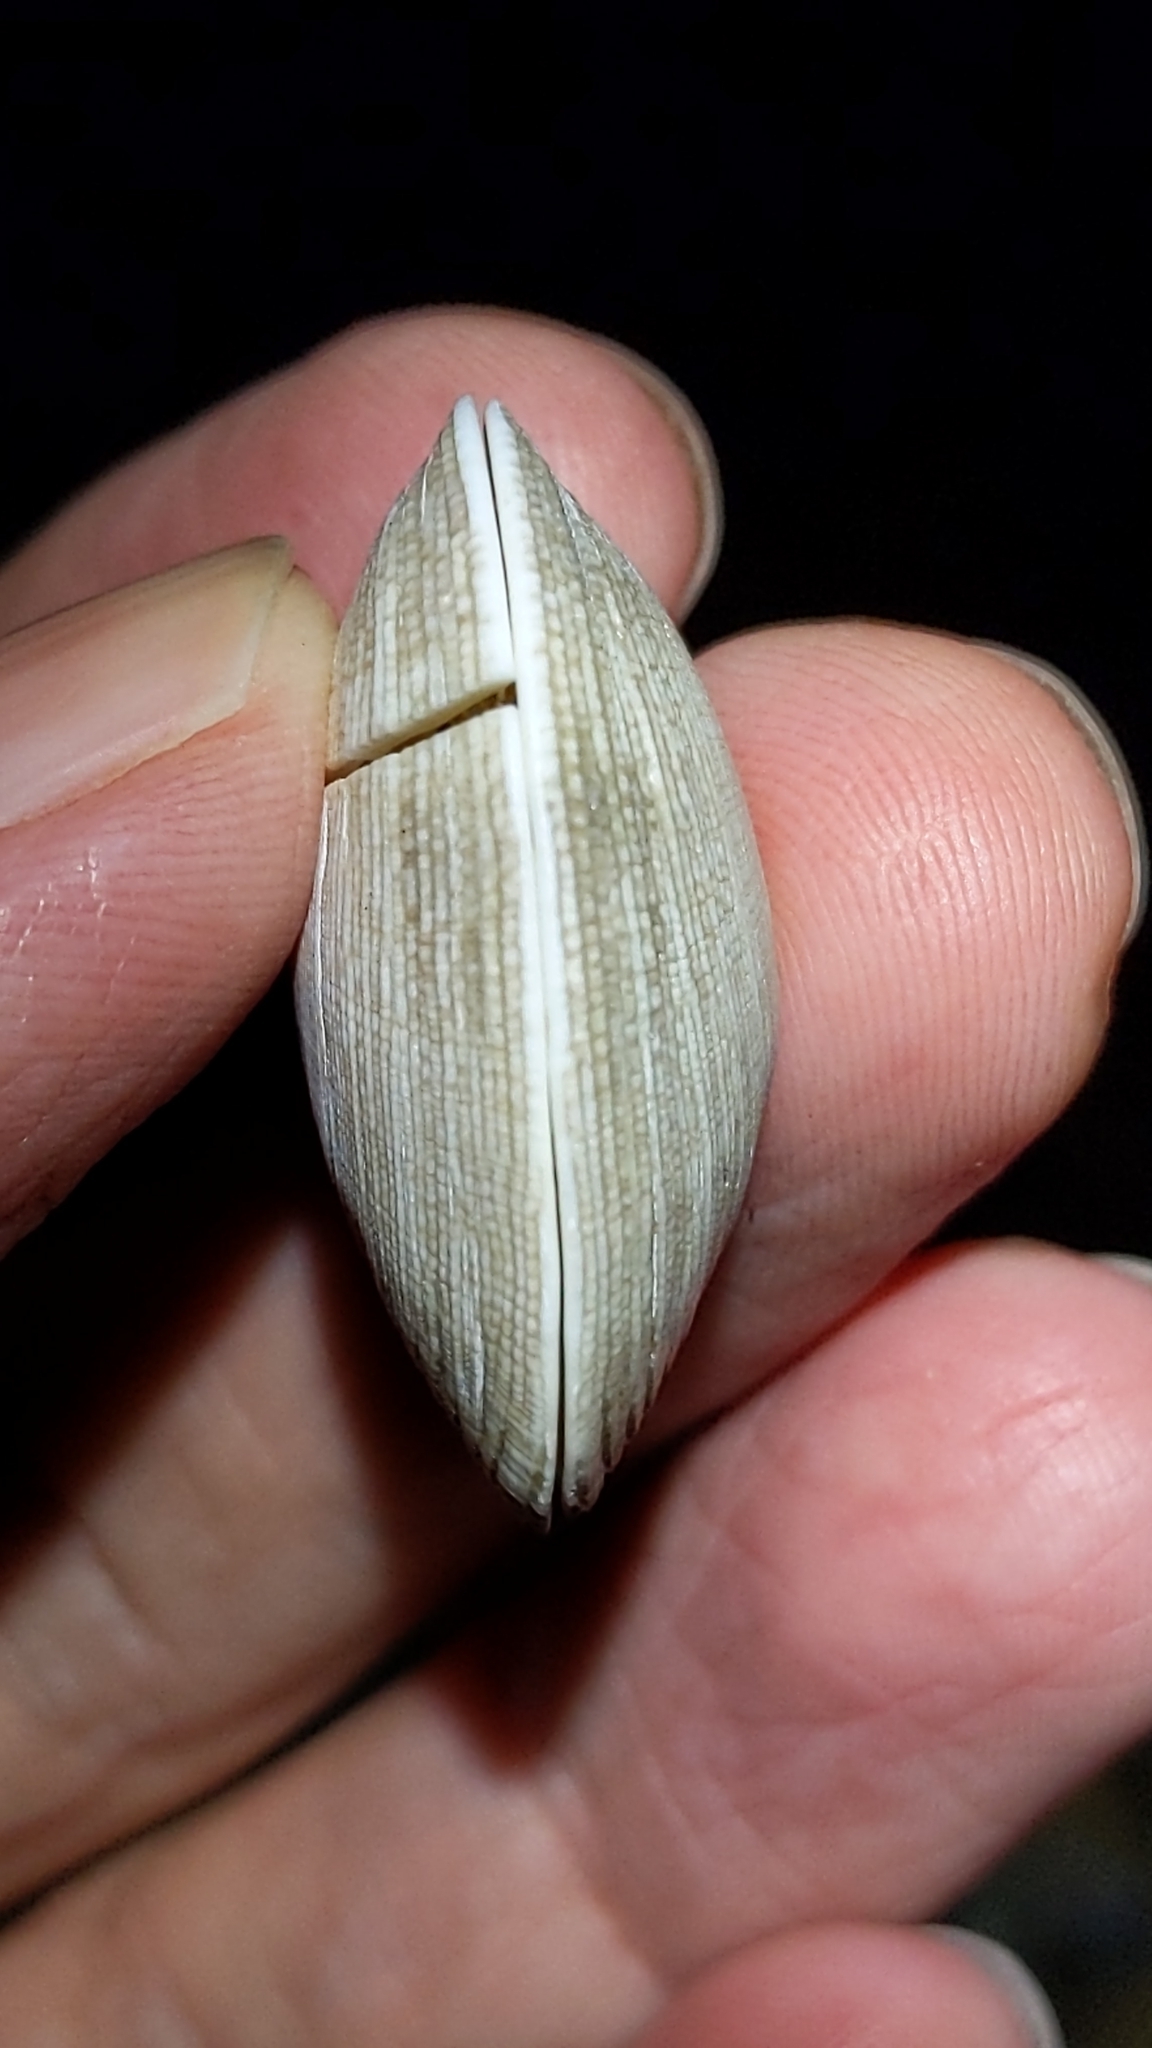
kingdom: Animalia
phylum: Mollusca
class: Bivalvia
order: Venerida
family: Veneridae
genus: Venerupis
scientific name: Venerupis largillierti
